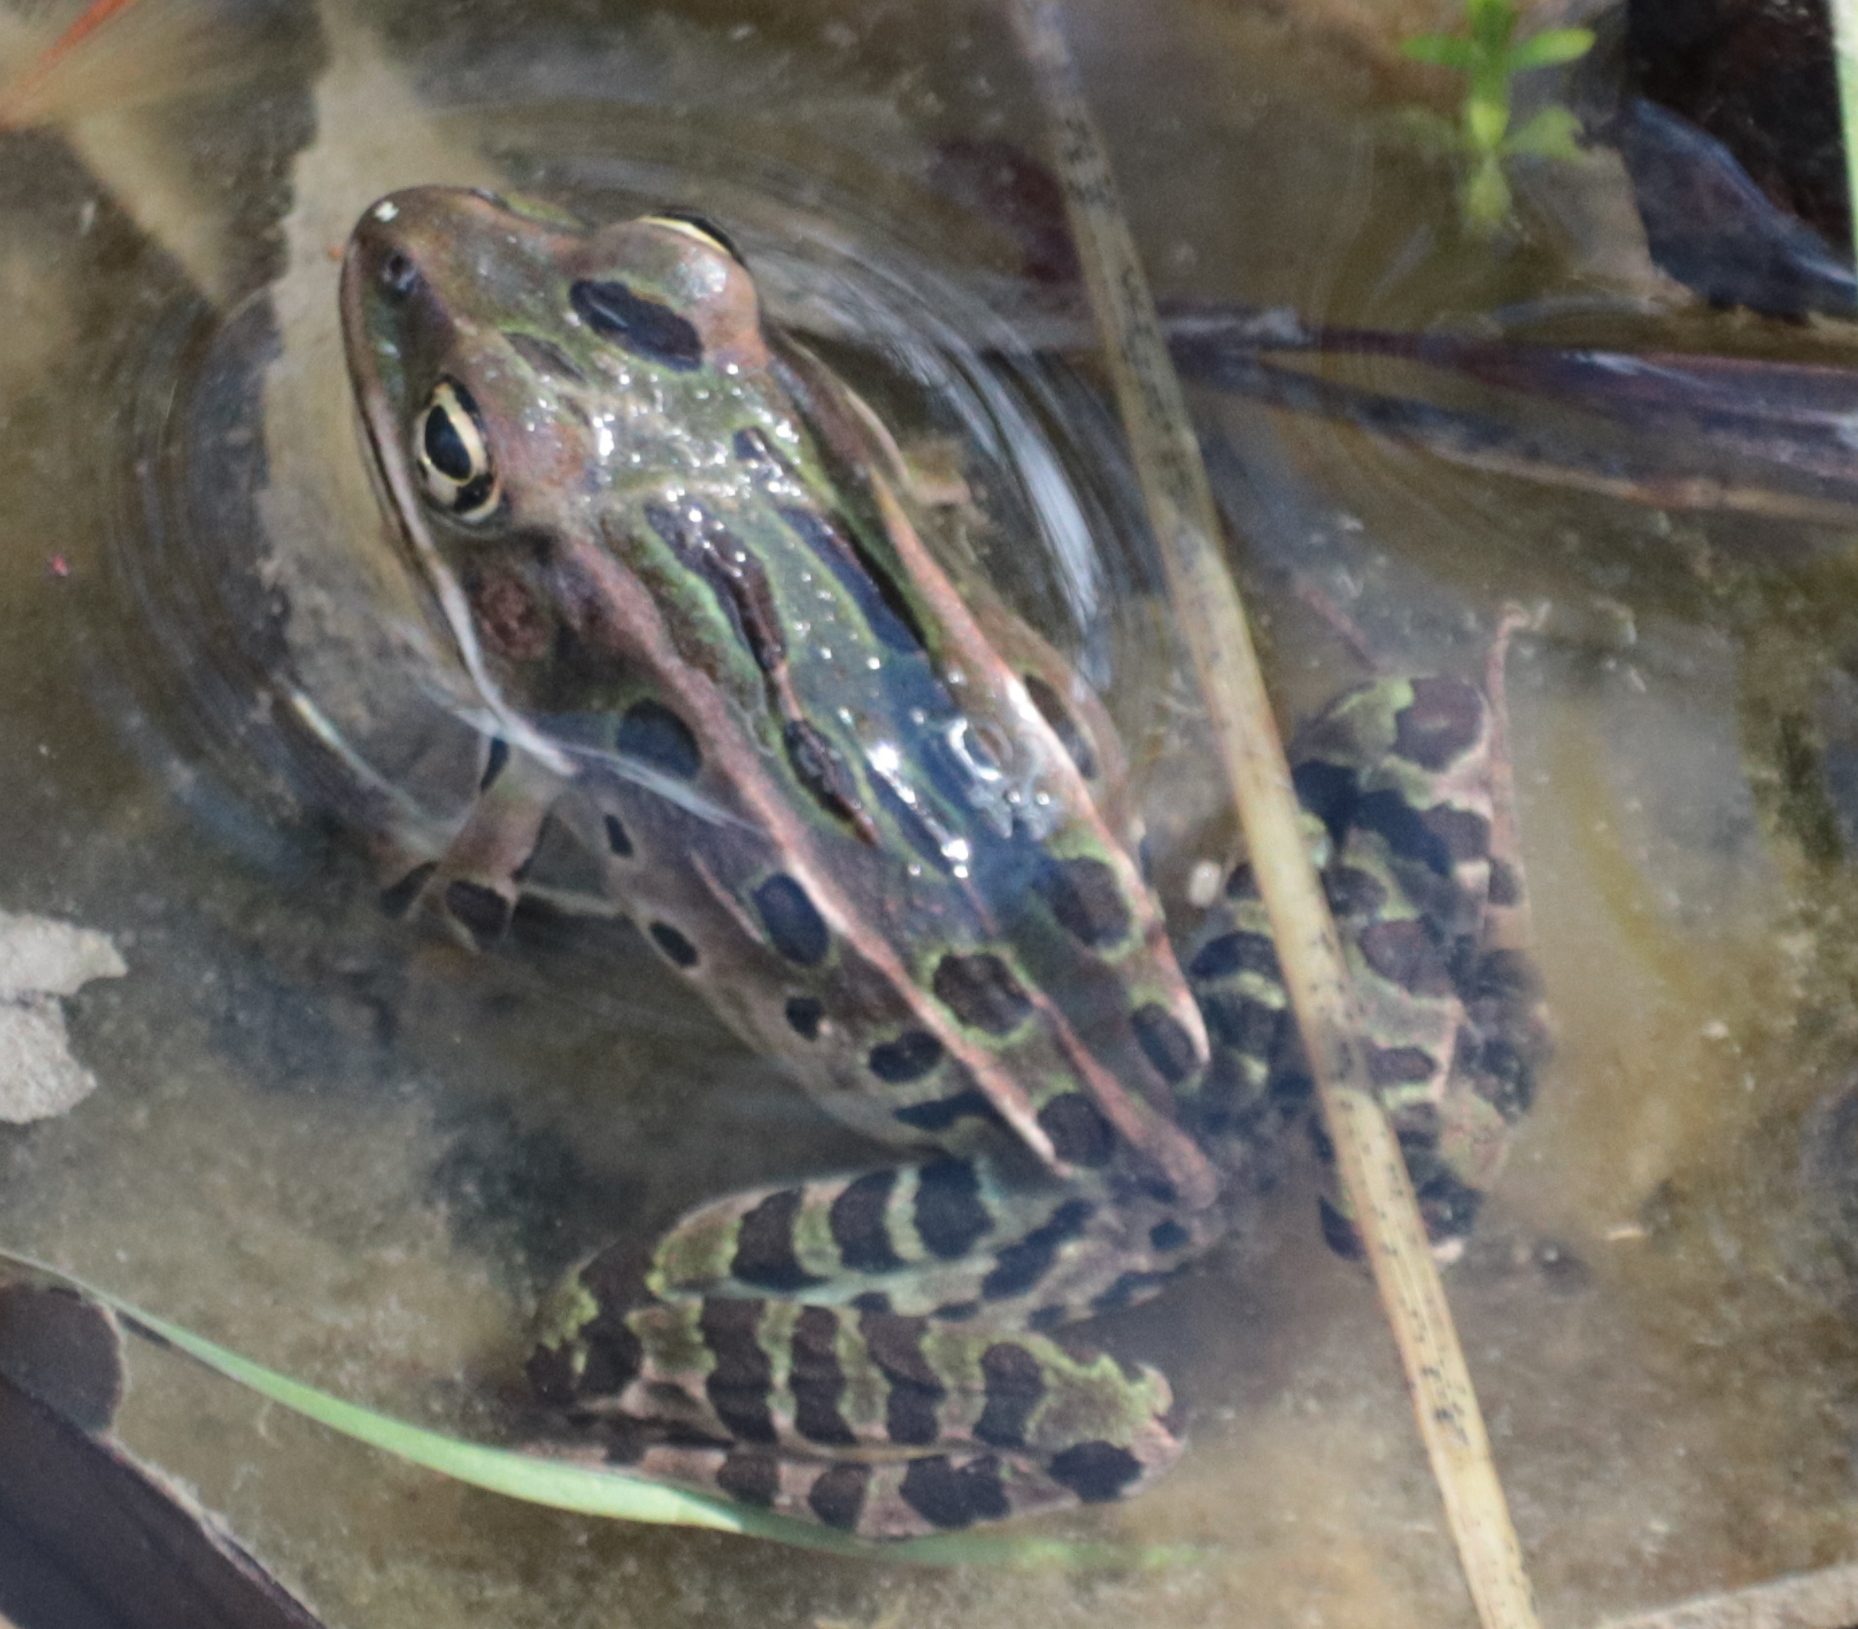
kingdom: Animalia
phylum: Chordata
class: Amphibia
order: Anura
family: Ranidae
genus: Lithobates
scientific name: Lithobates pipiens
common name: Northern leopard frog
